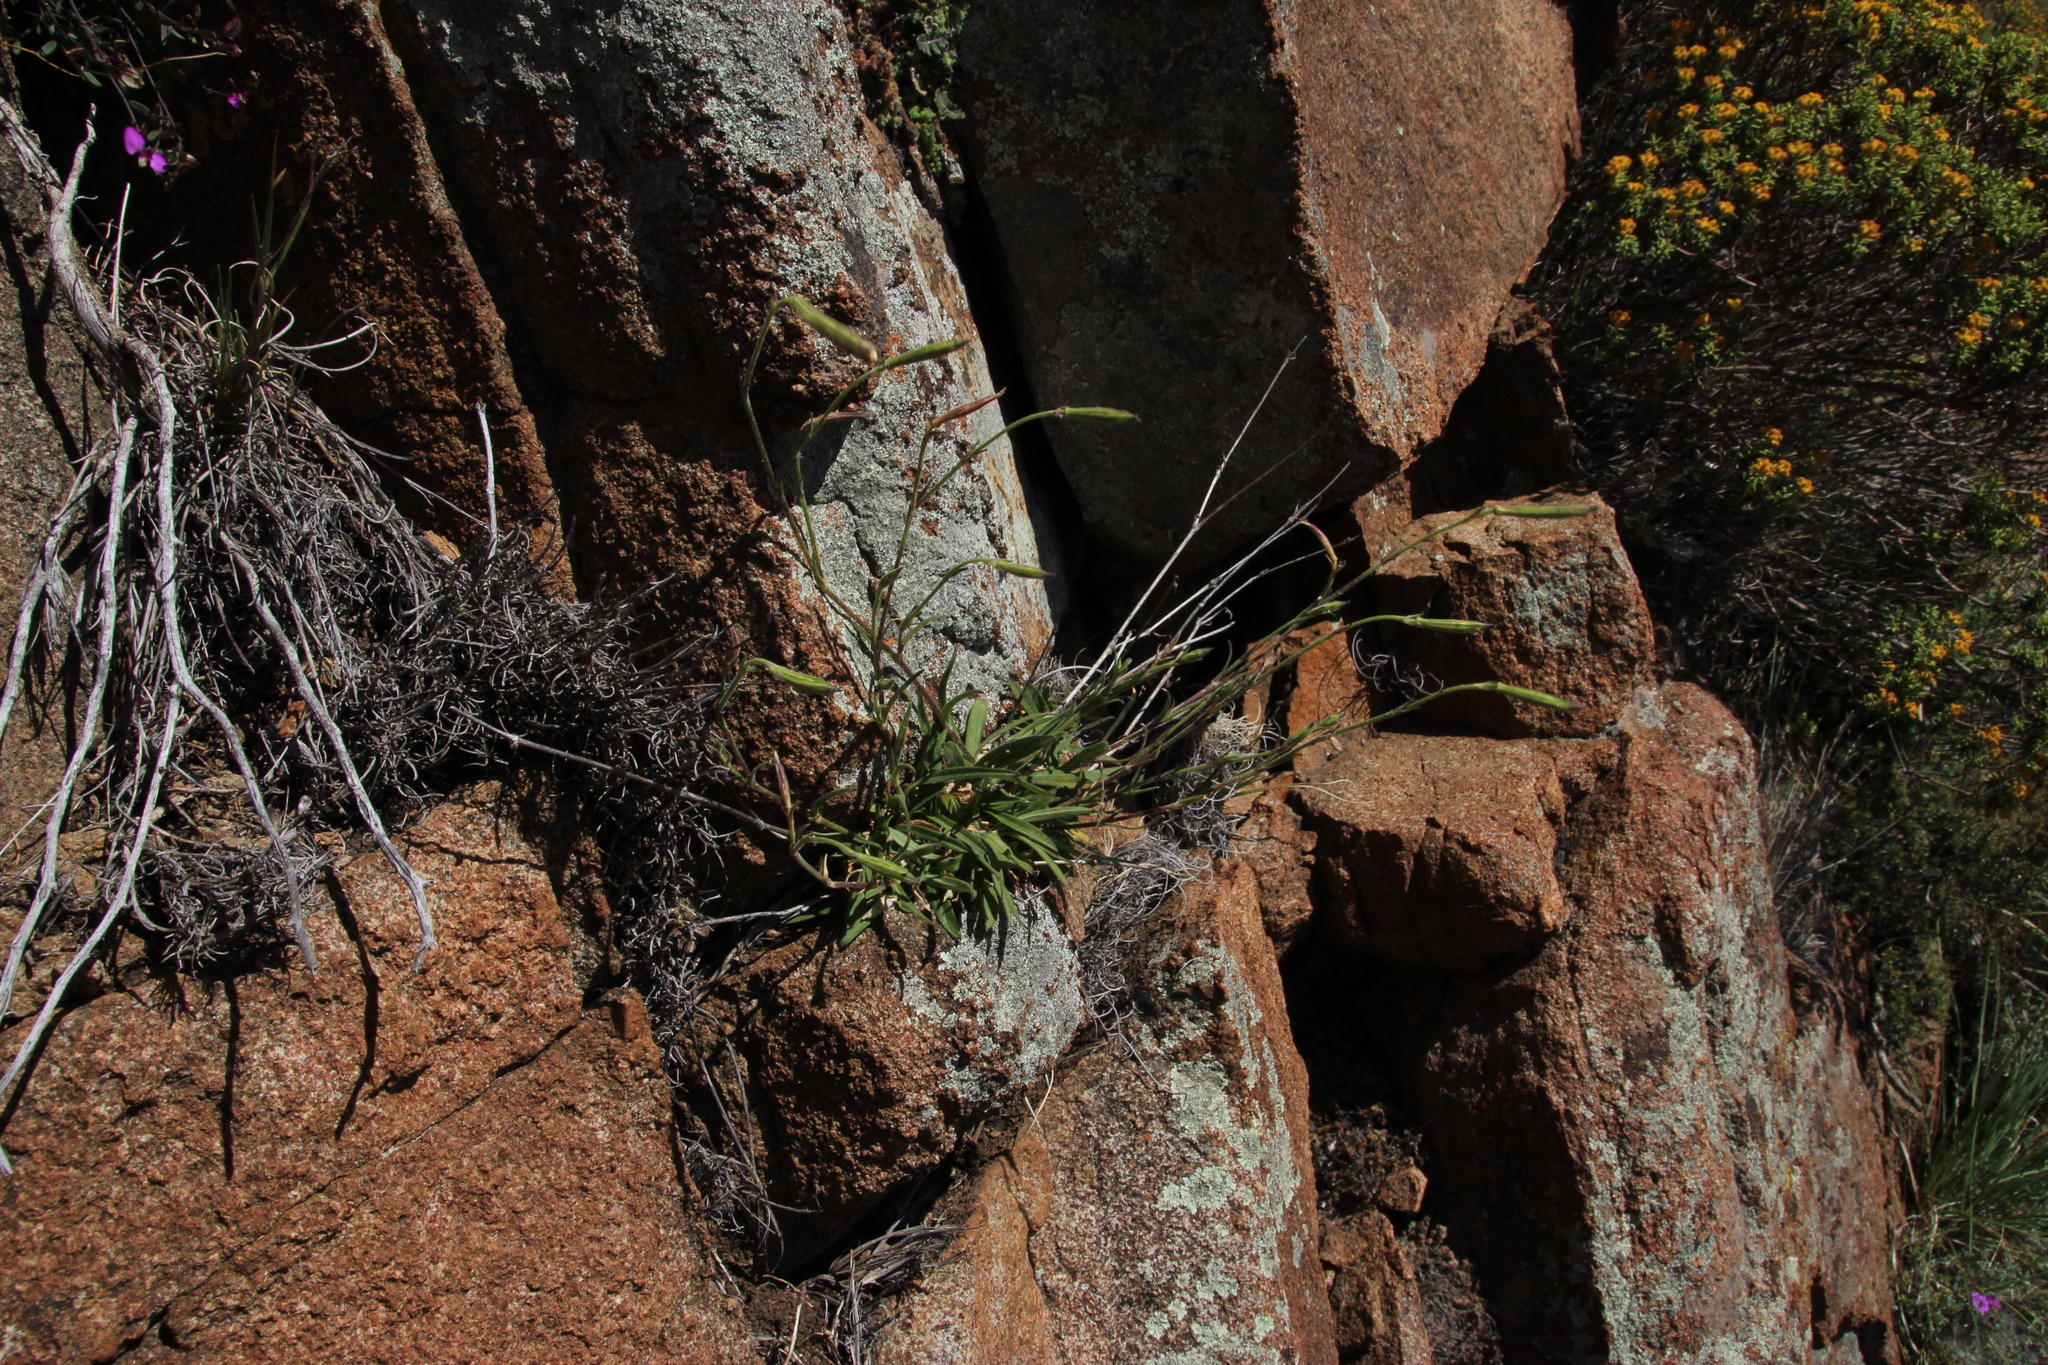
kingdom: Plantae
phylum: Tracheophyta
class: Magnoliopsida
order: Caryophyllales
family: Caryophyllaceae
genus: Silene
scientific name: Silene burchellii
